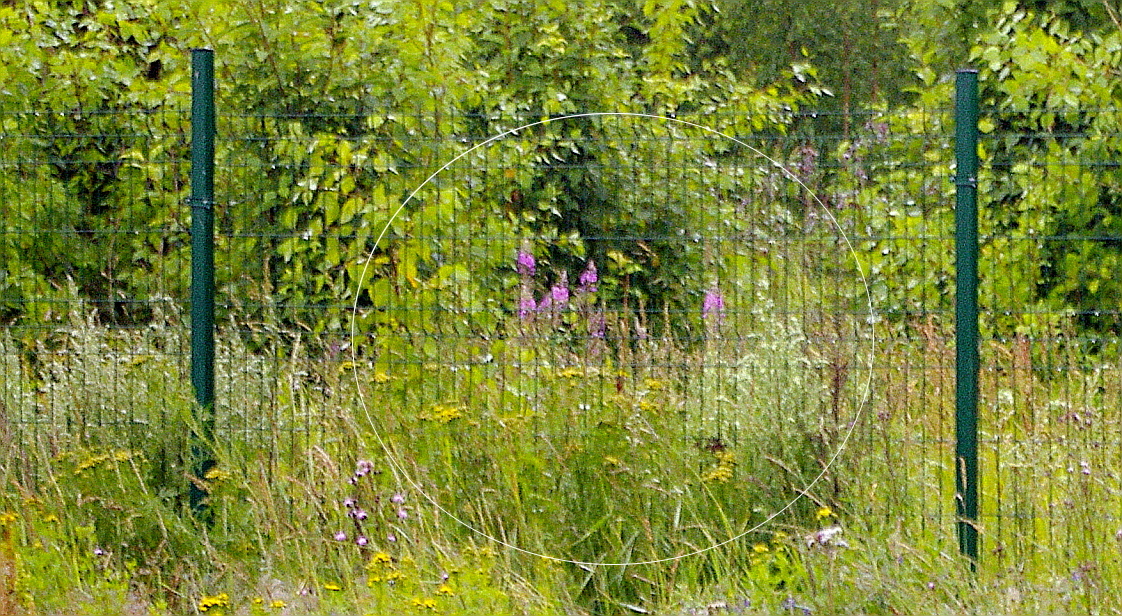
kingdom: Plantae
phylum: Tracheophyta
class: Magnoliopsida
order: Myrtales
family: Onagraceae
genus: Chamaenerion
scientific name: Chamaenerion angustifolium
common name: Fireweed
